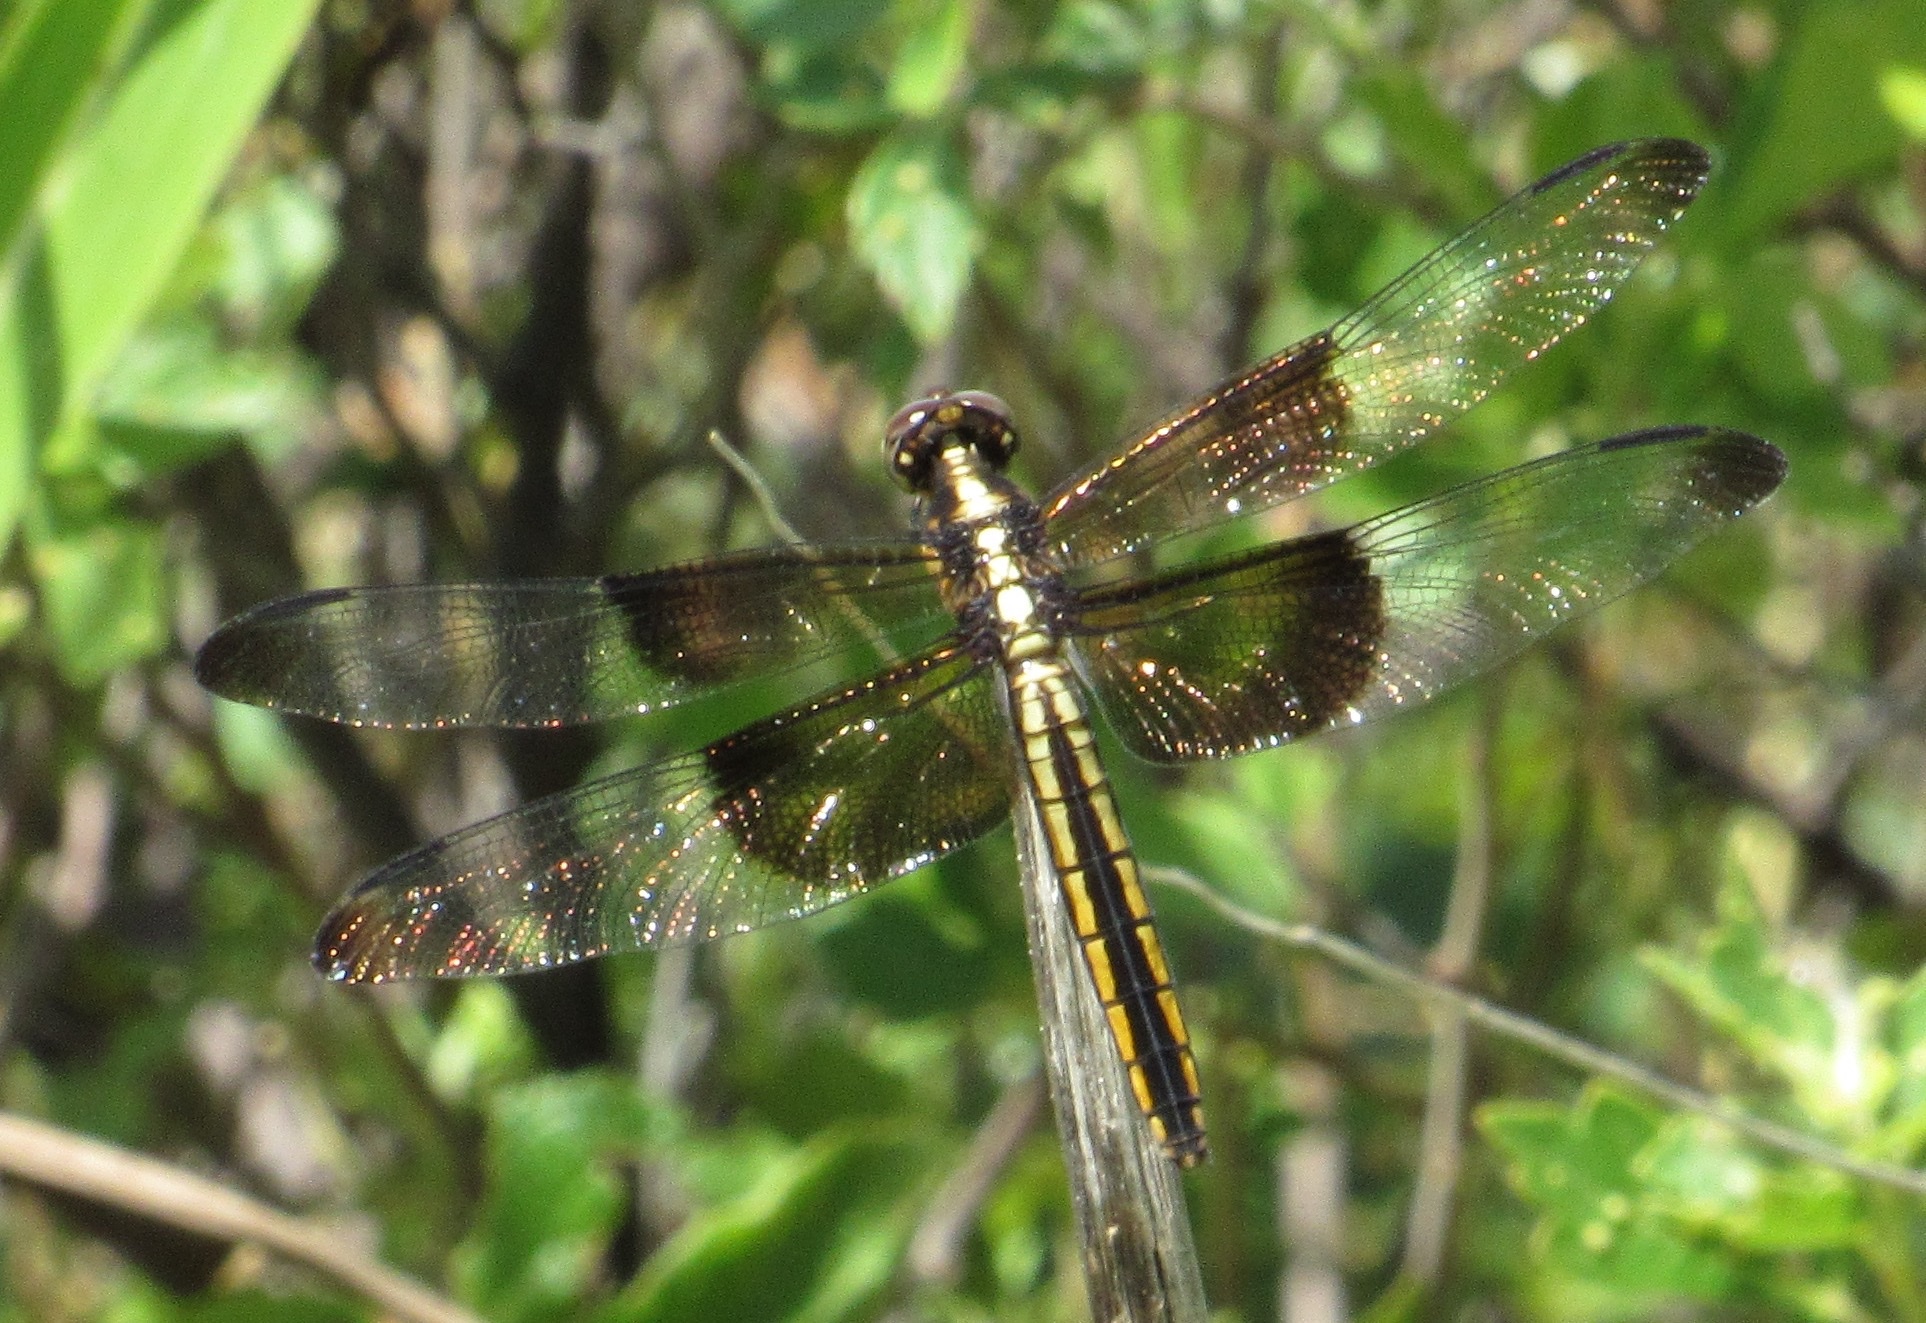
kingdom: Animalia
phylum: Arthropoda
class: Insecta
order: Odonata
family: Libellulidae
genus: Libellula
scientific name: Libellula luctuosa
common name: Widow skimmer
